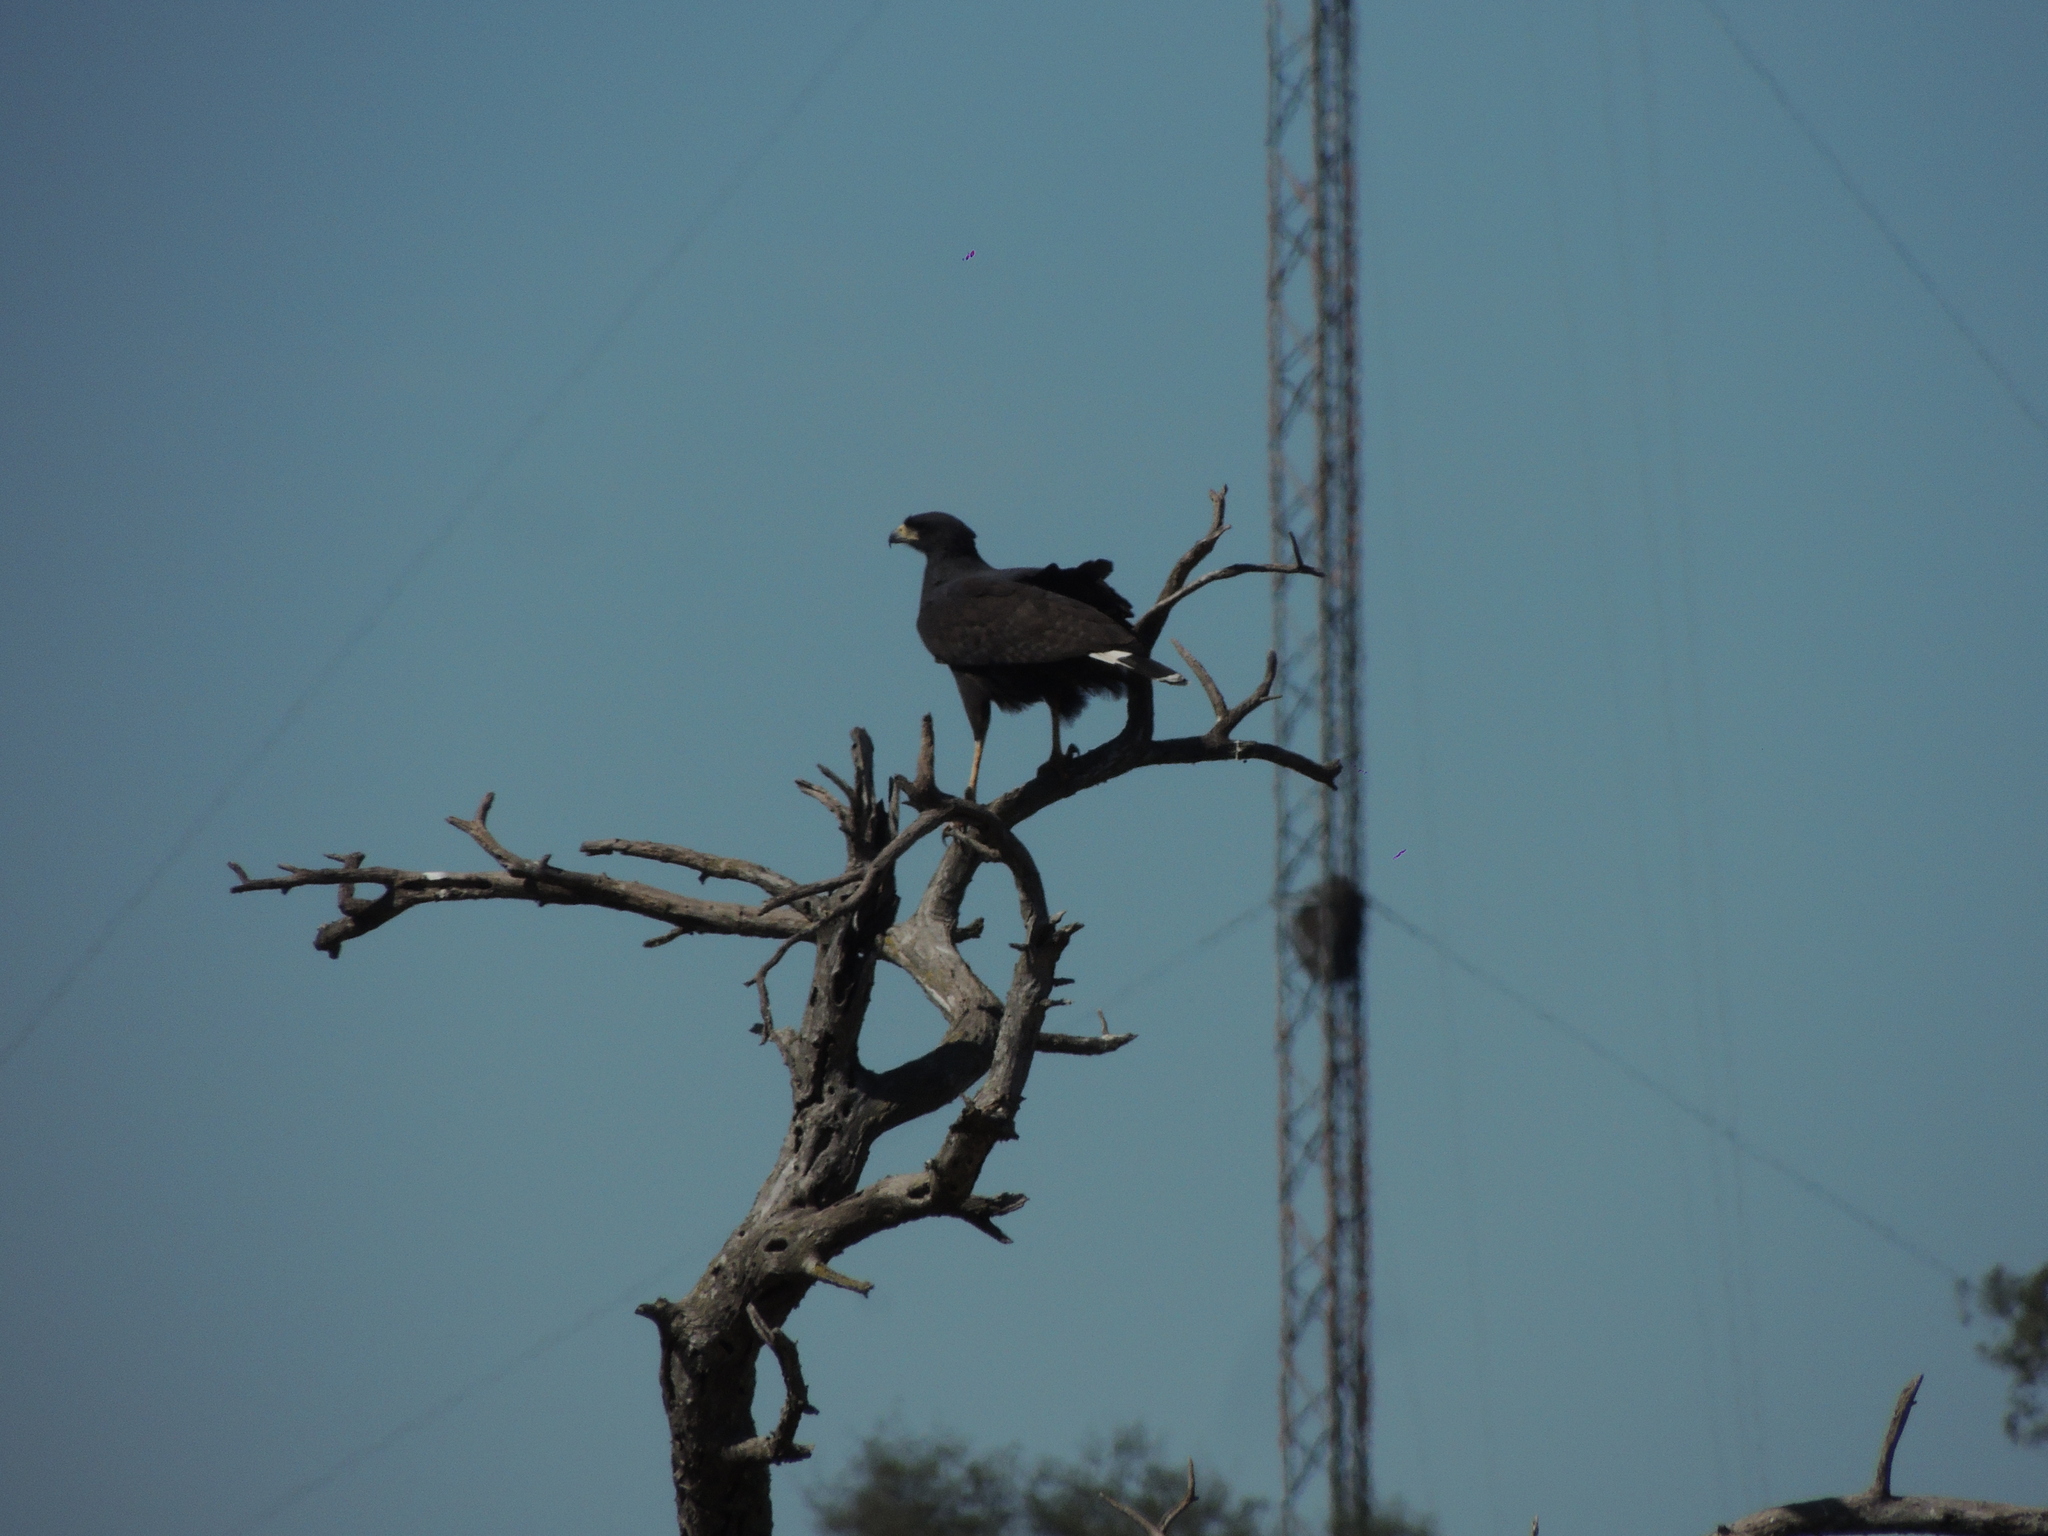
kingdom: Animalia
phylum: Chordata
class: Aves
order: Accipitriformes
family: Accipitridae
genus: Buteogallus
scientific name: Buteogallus urubitinga
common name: Great black hawk
